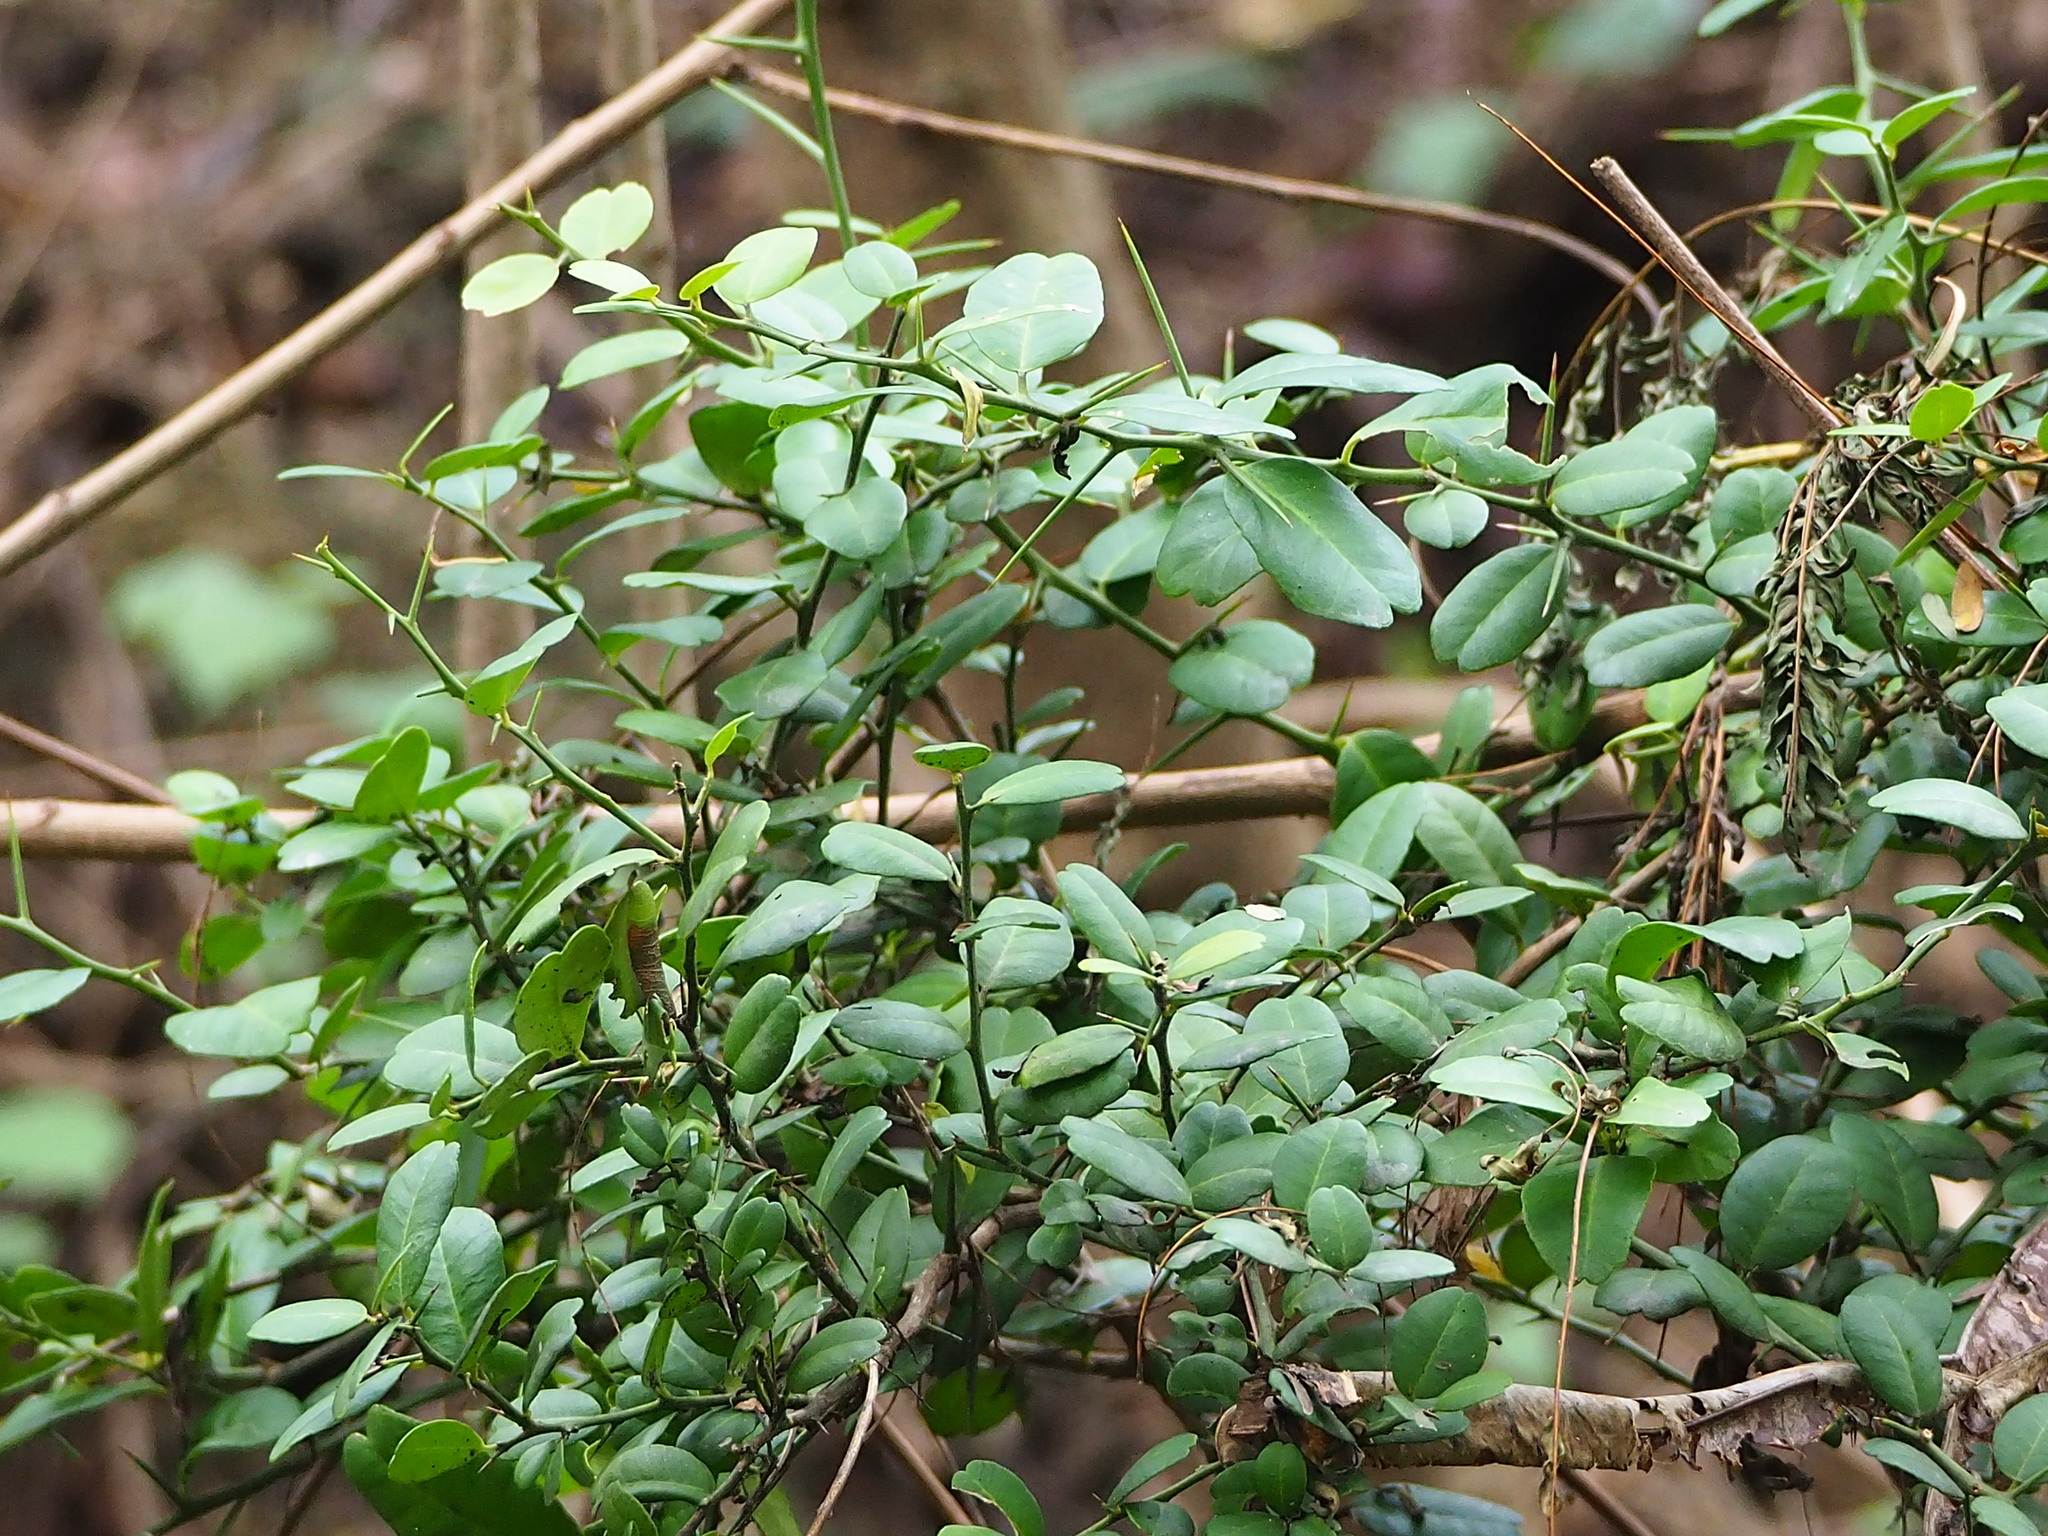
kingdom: Plantae
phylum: Tracheophyta
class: Magnoliopsida
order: Sapindales
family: Rutaceae
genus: Atalantia
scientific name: Atalantia buxifolia
